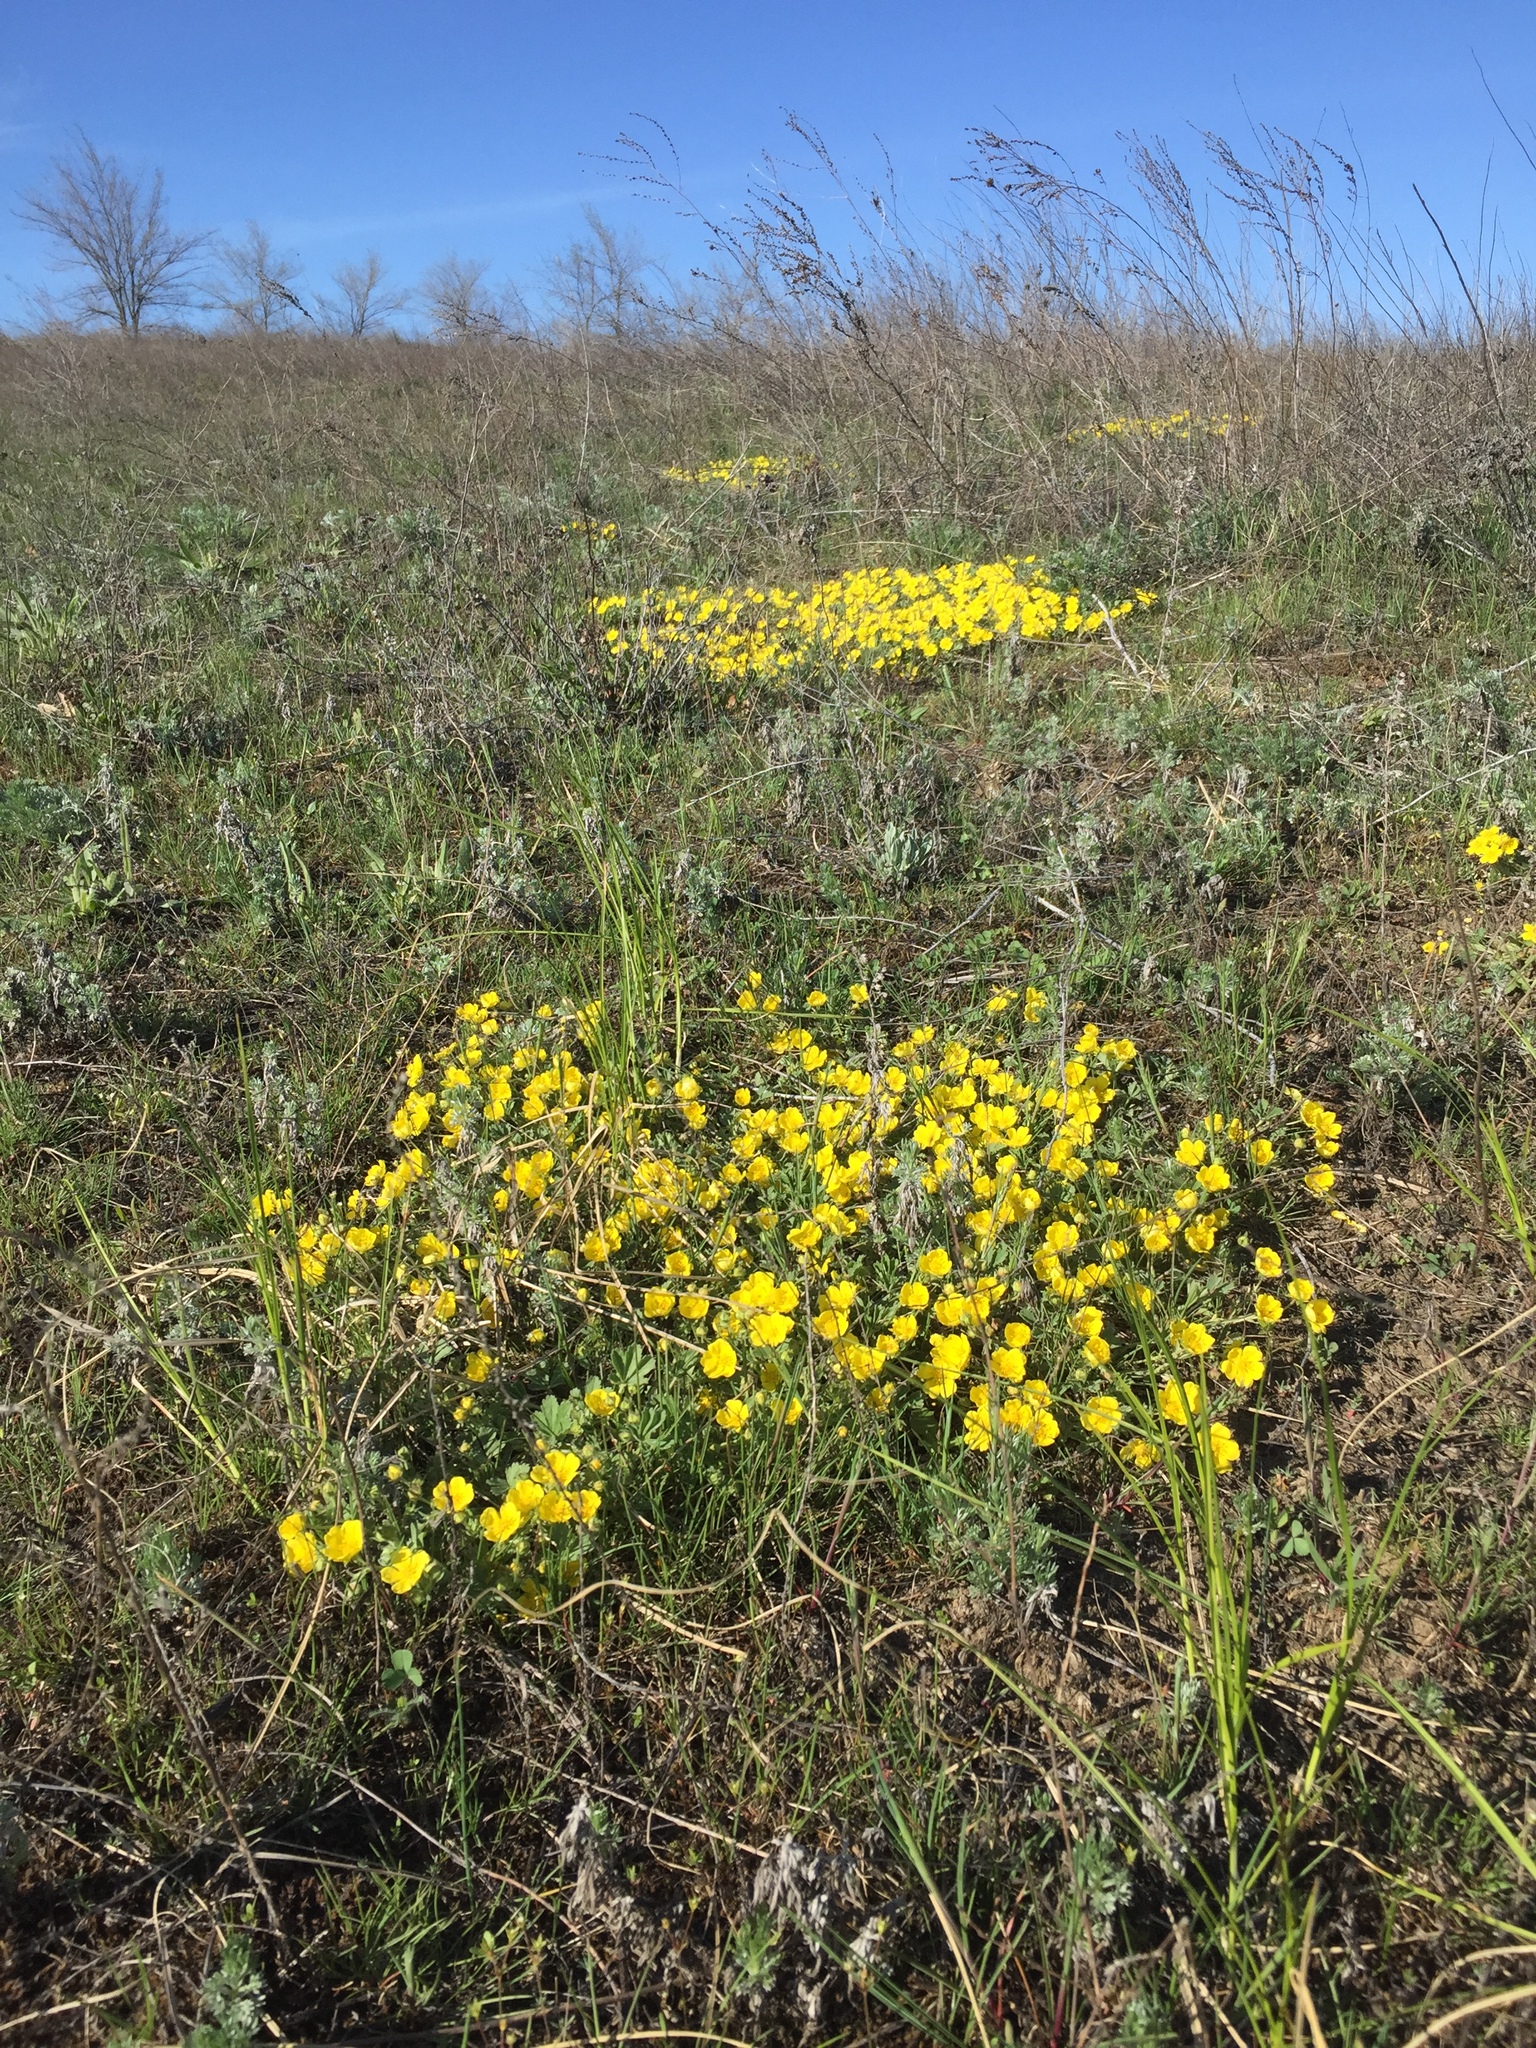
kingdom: Plantae
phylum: Tracheophyta
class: Magnoliopsida
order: Rosales
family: Rosaceae
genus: Potentilla
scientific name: Potentilla incana
